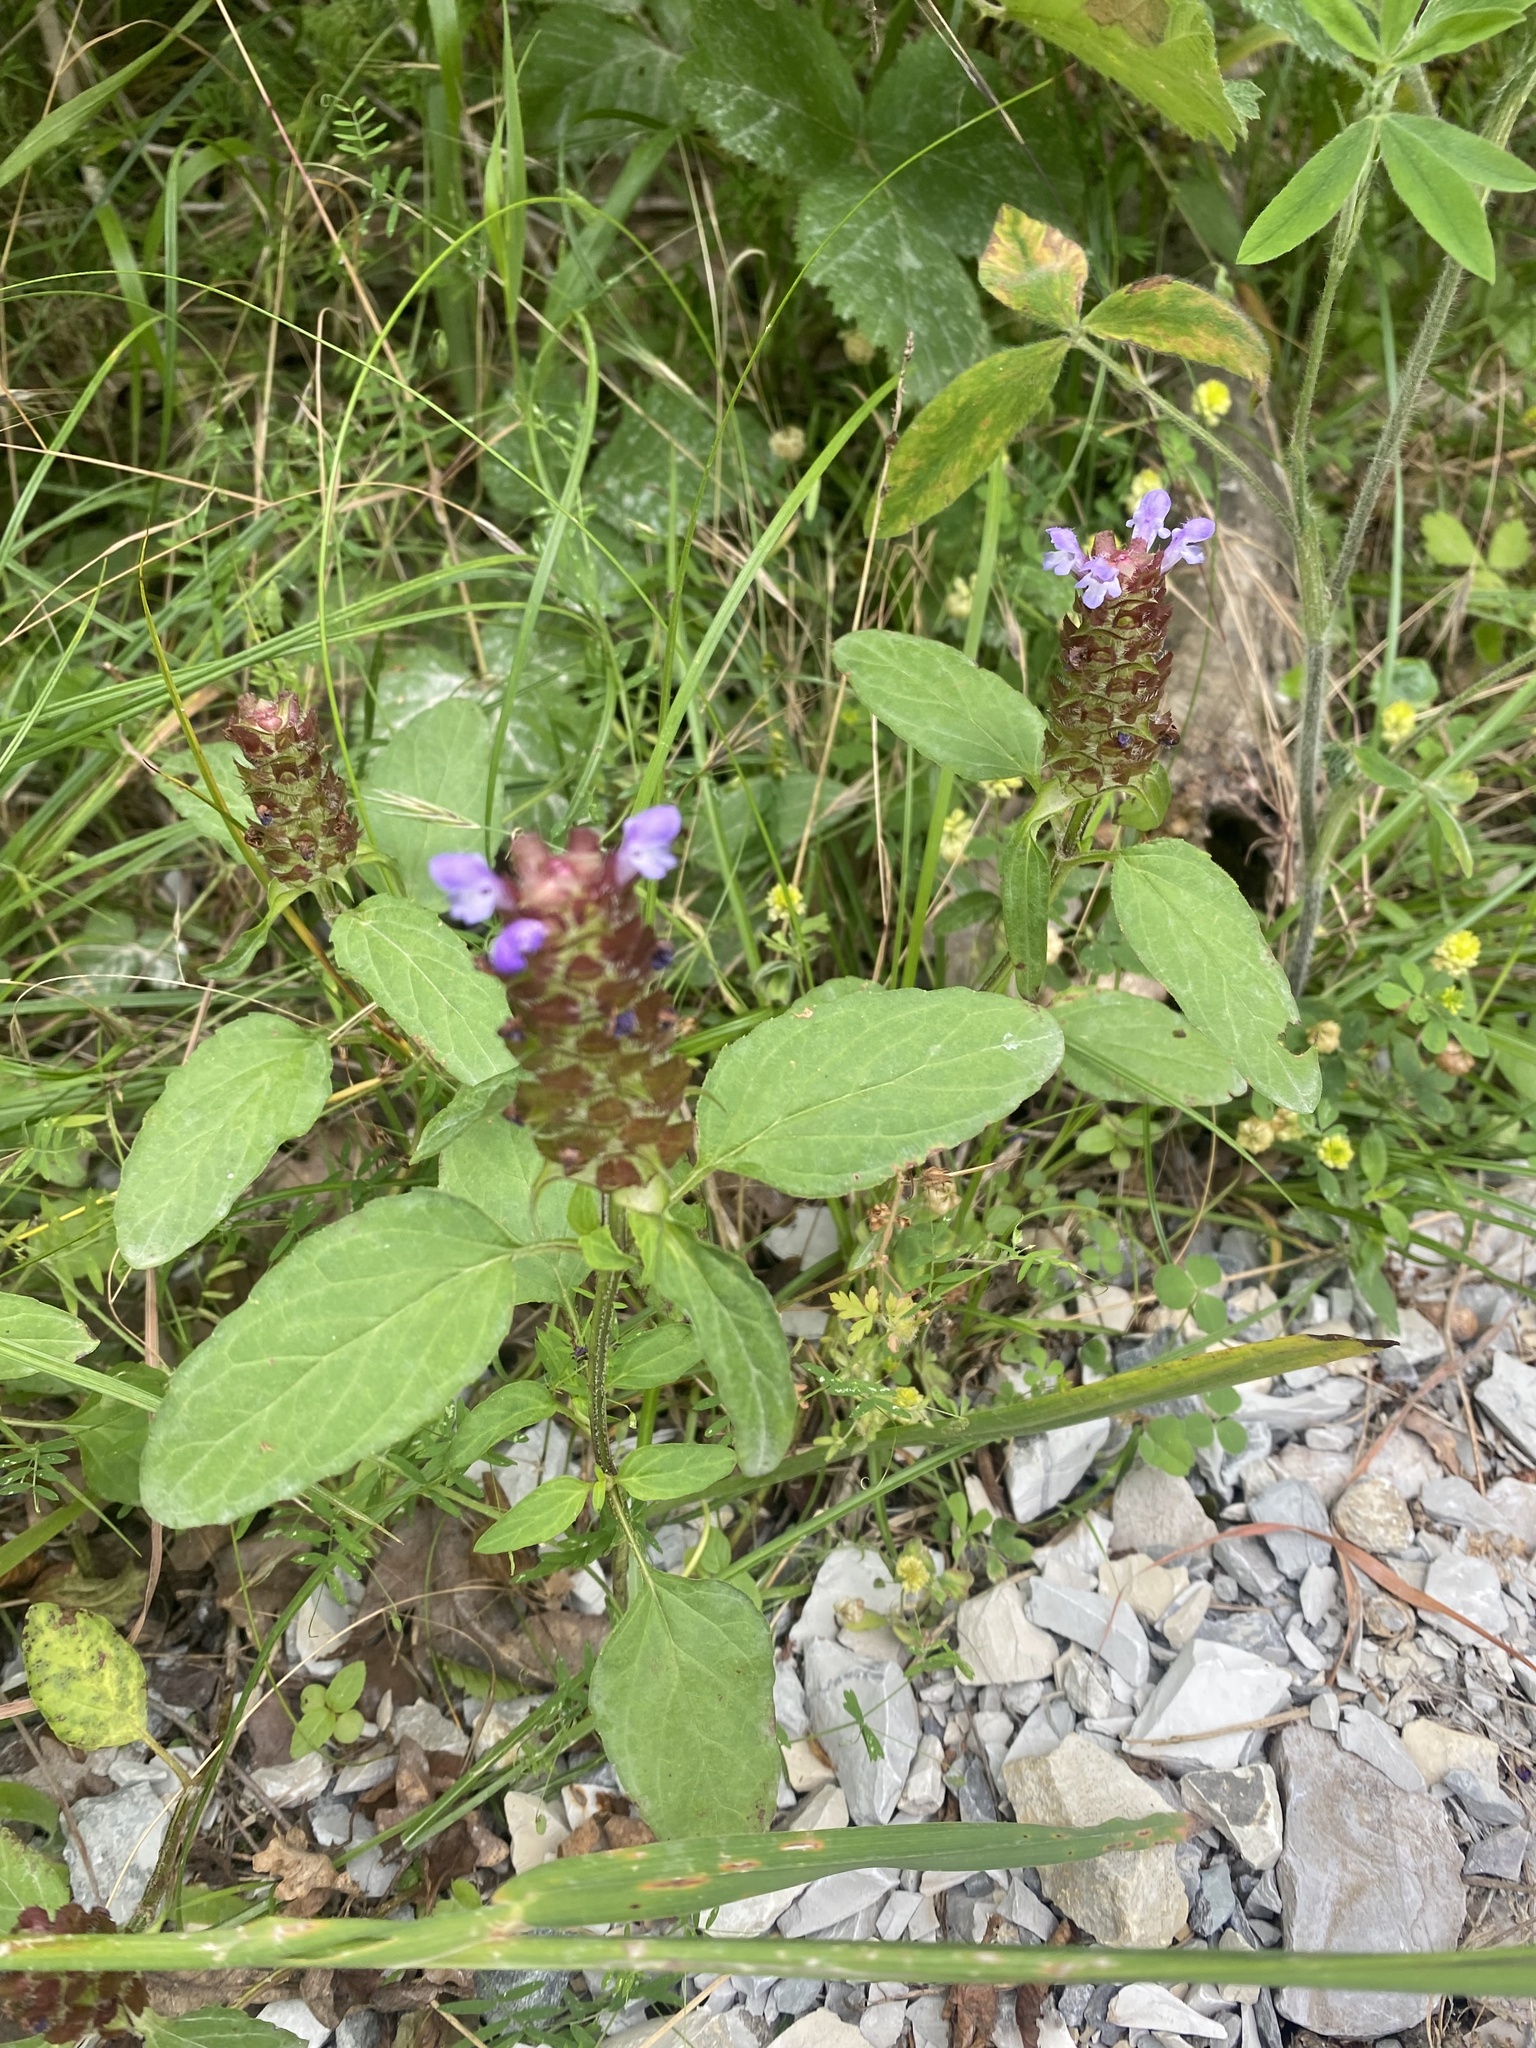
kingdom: Plantae
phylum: Tracheophyta
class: Magnoliopsida
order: Lamiales
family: Lamiaceae
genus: Prunella
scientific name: Prunella vulgaris
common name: Heal-all
